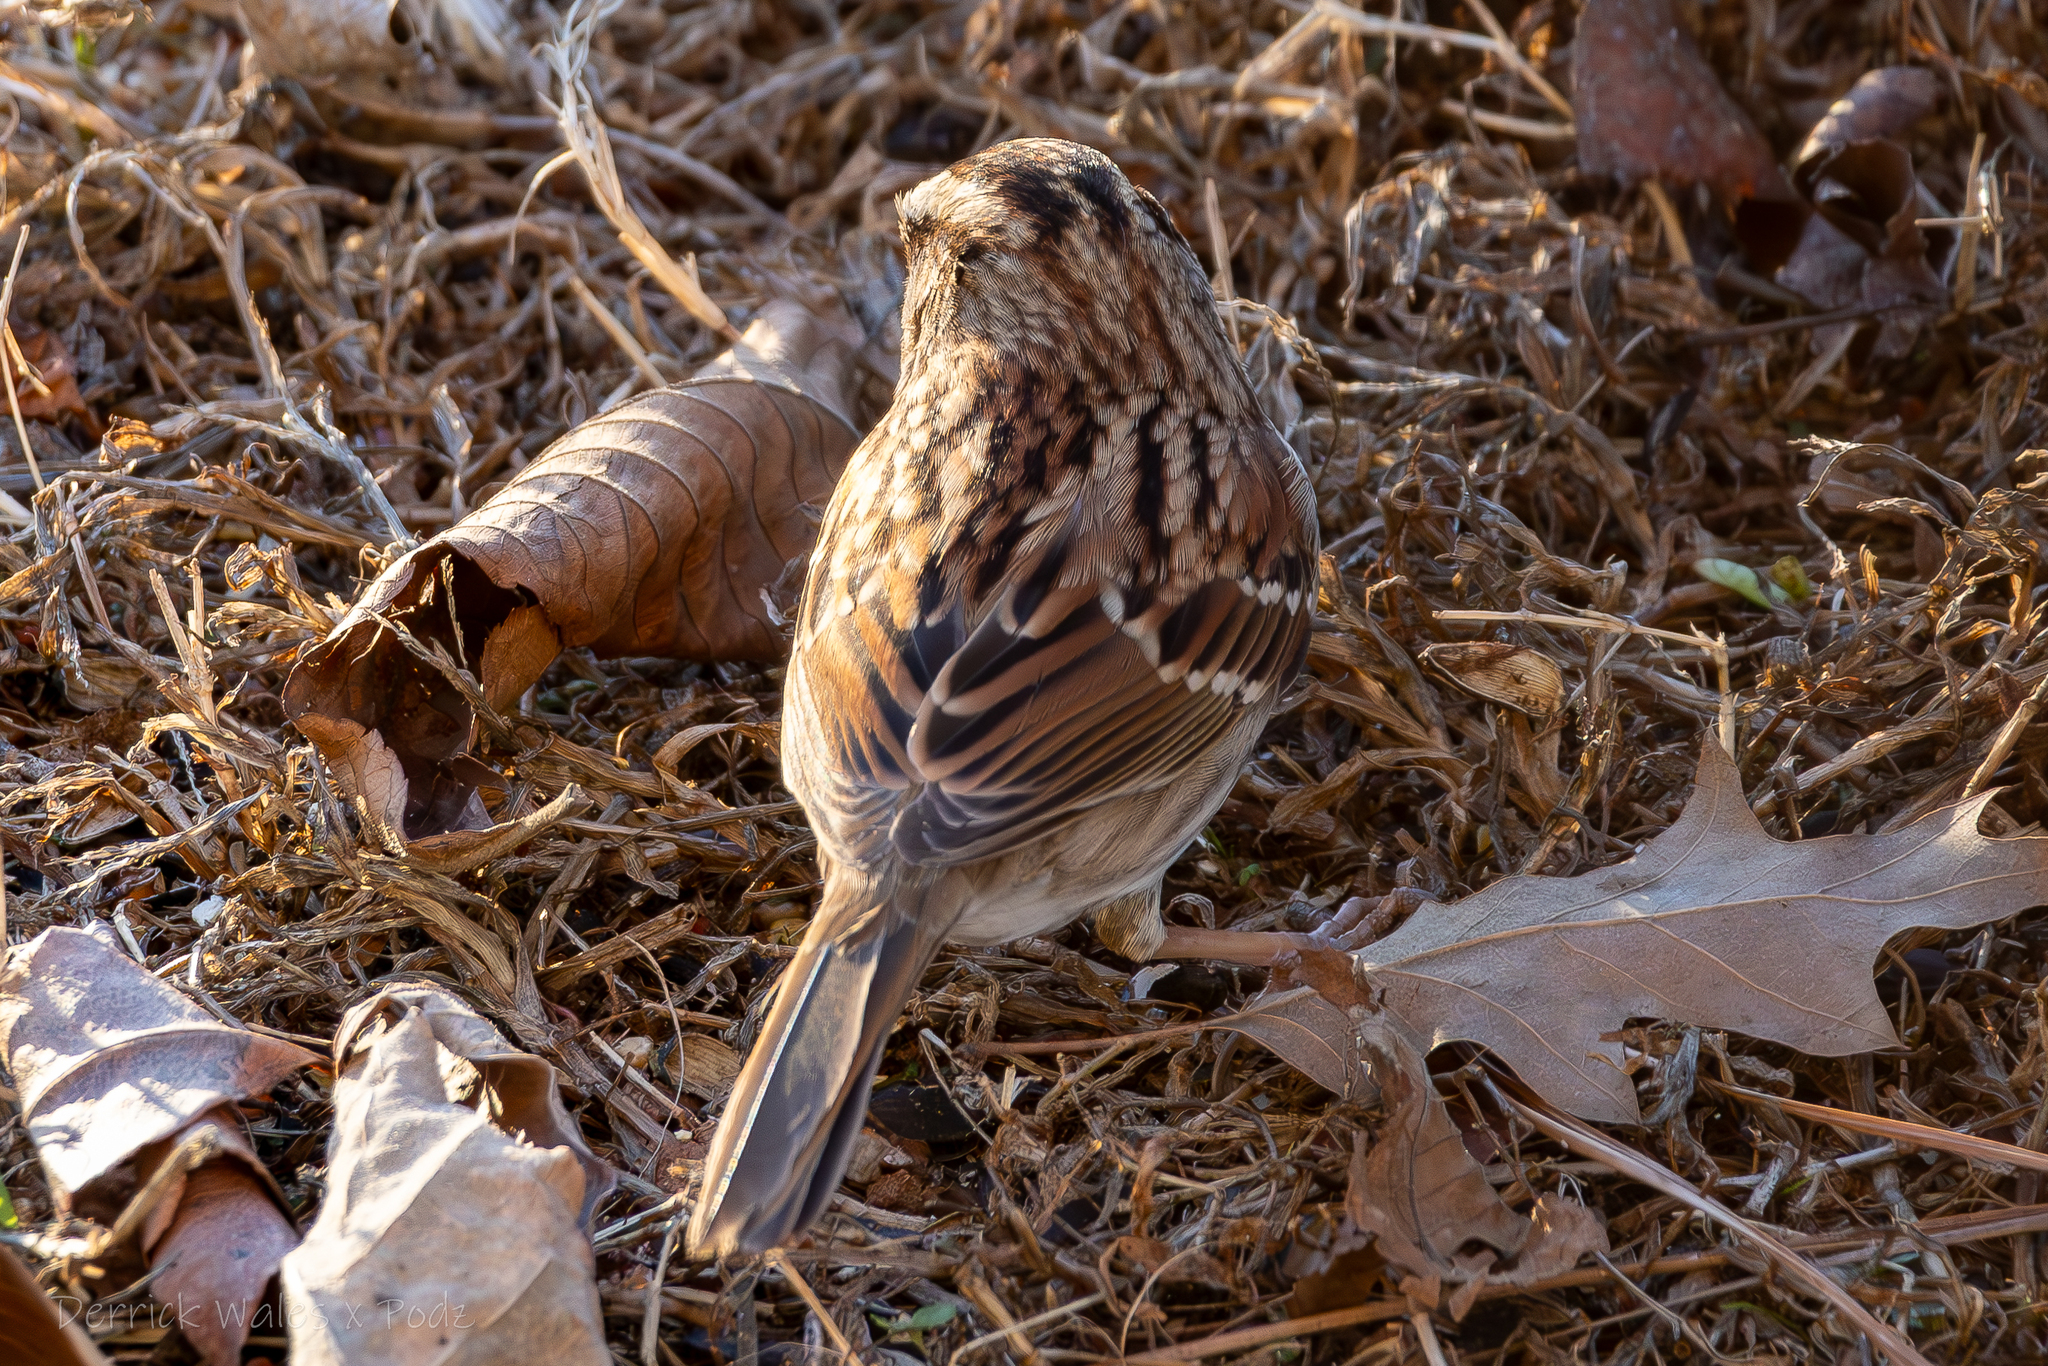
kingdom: Animalia
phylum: Chordata
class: Aves
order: Passeriformes
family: Passerellidae
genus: Zonotrichia
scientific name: Zonotrichia albicollis
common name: White-throated sparrow
